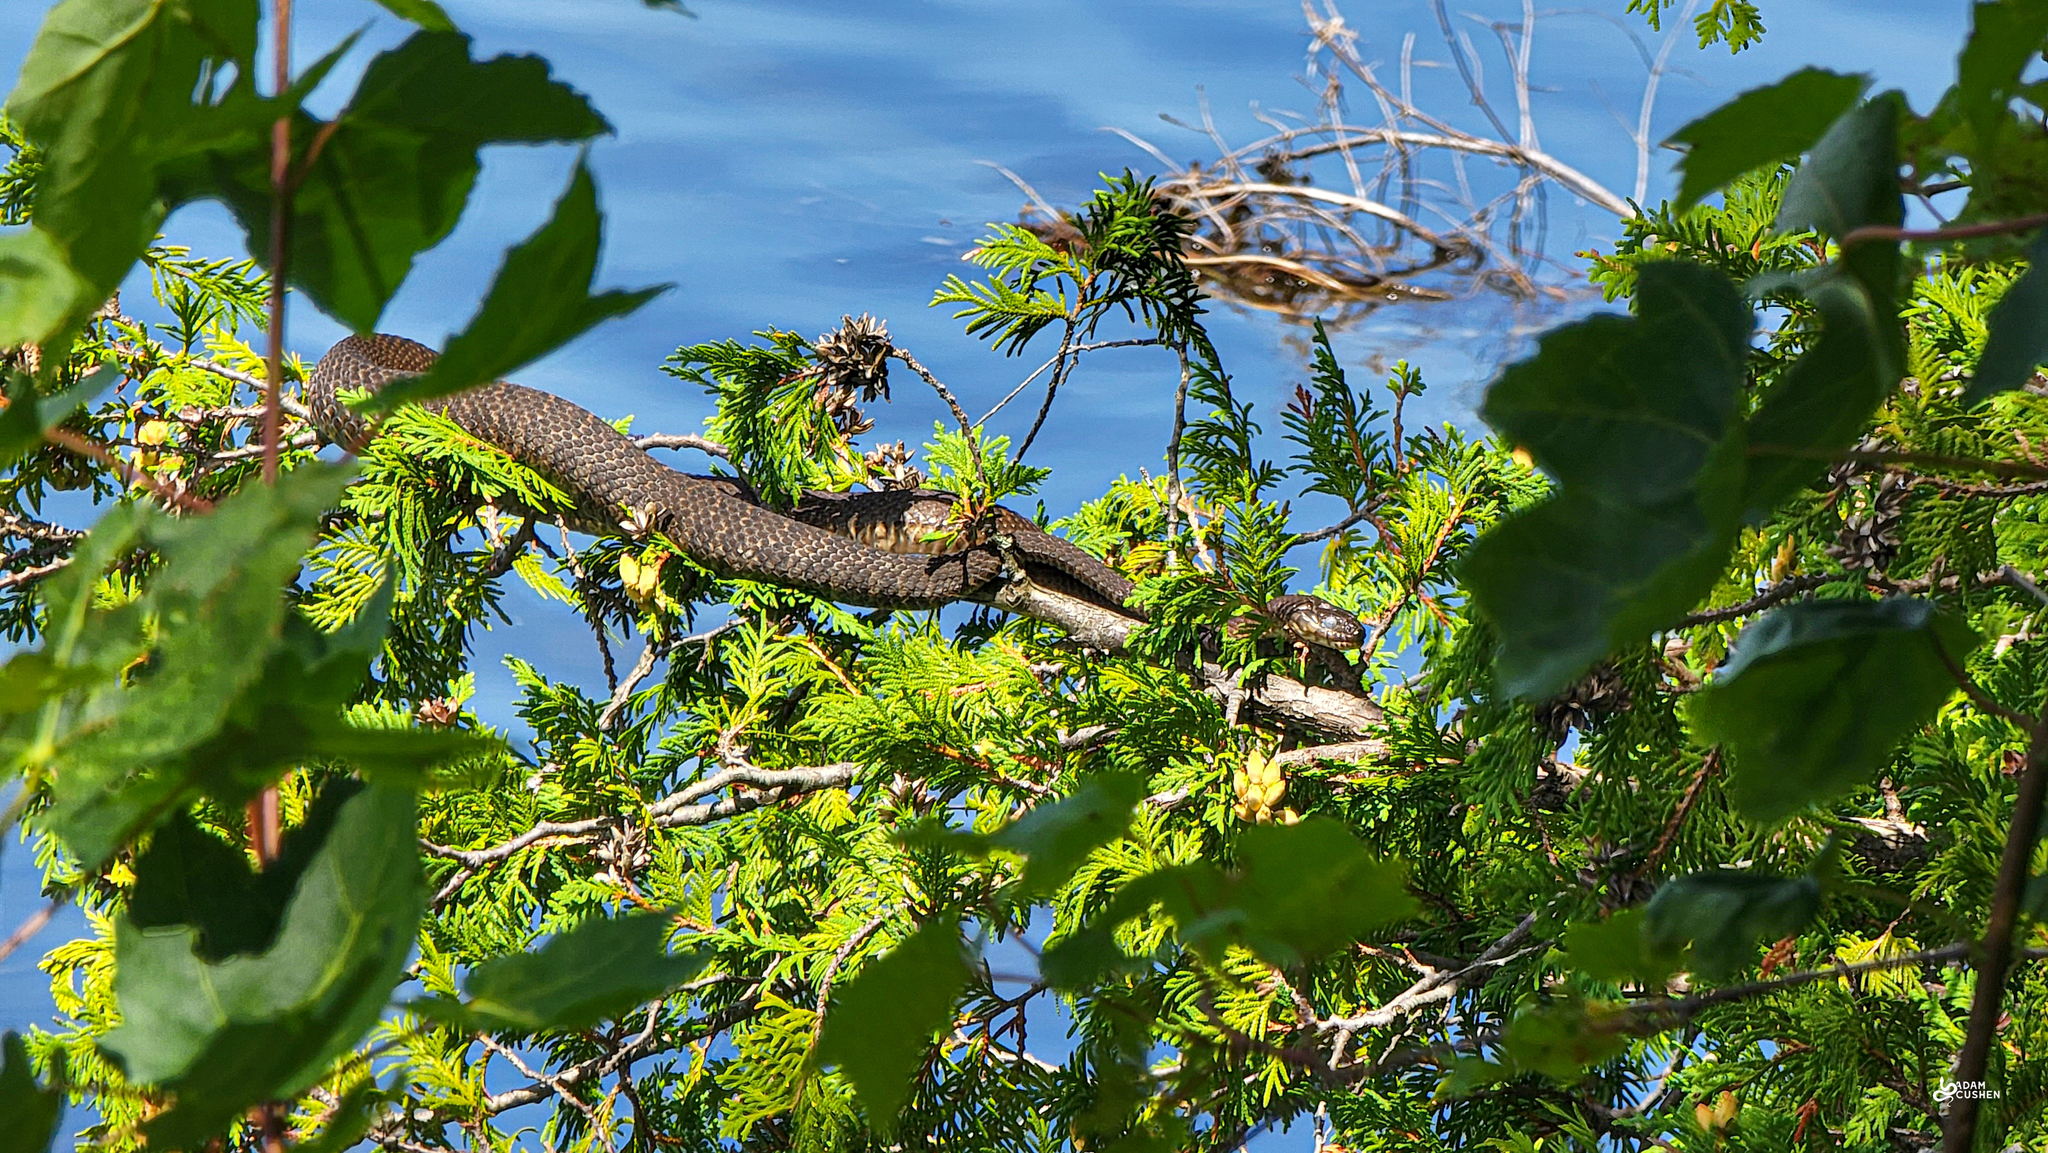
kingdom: Animalia
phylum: Chordata
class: Squamata
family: Colubridae
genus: Nerodia
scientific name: Nerodia sipedon
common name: Northern water snake
